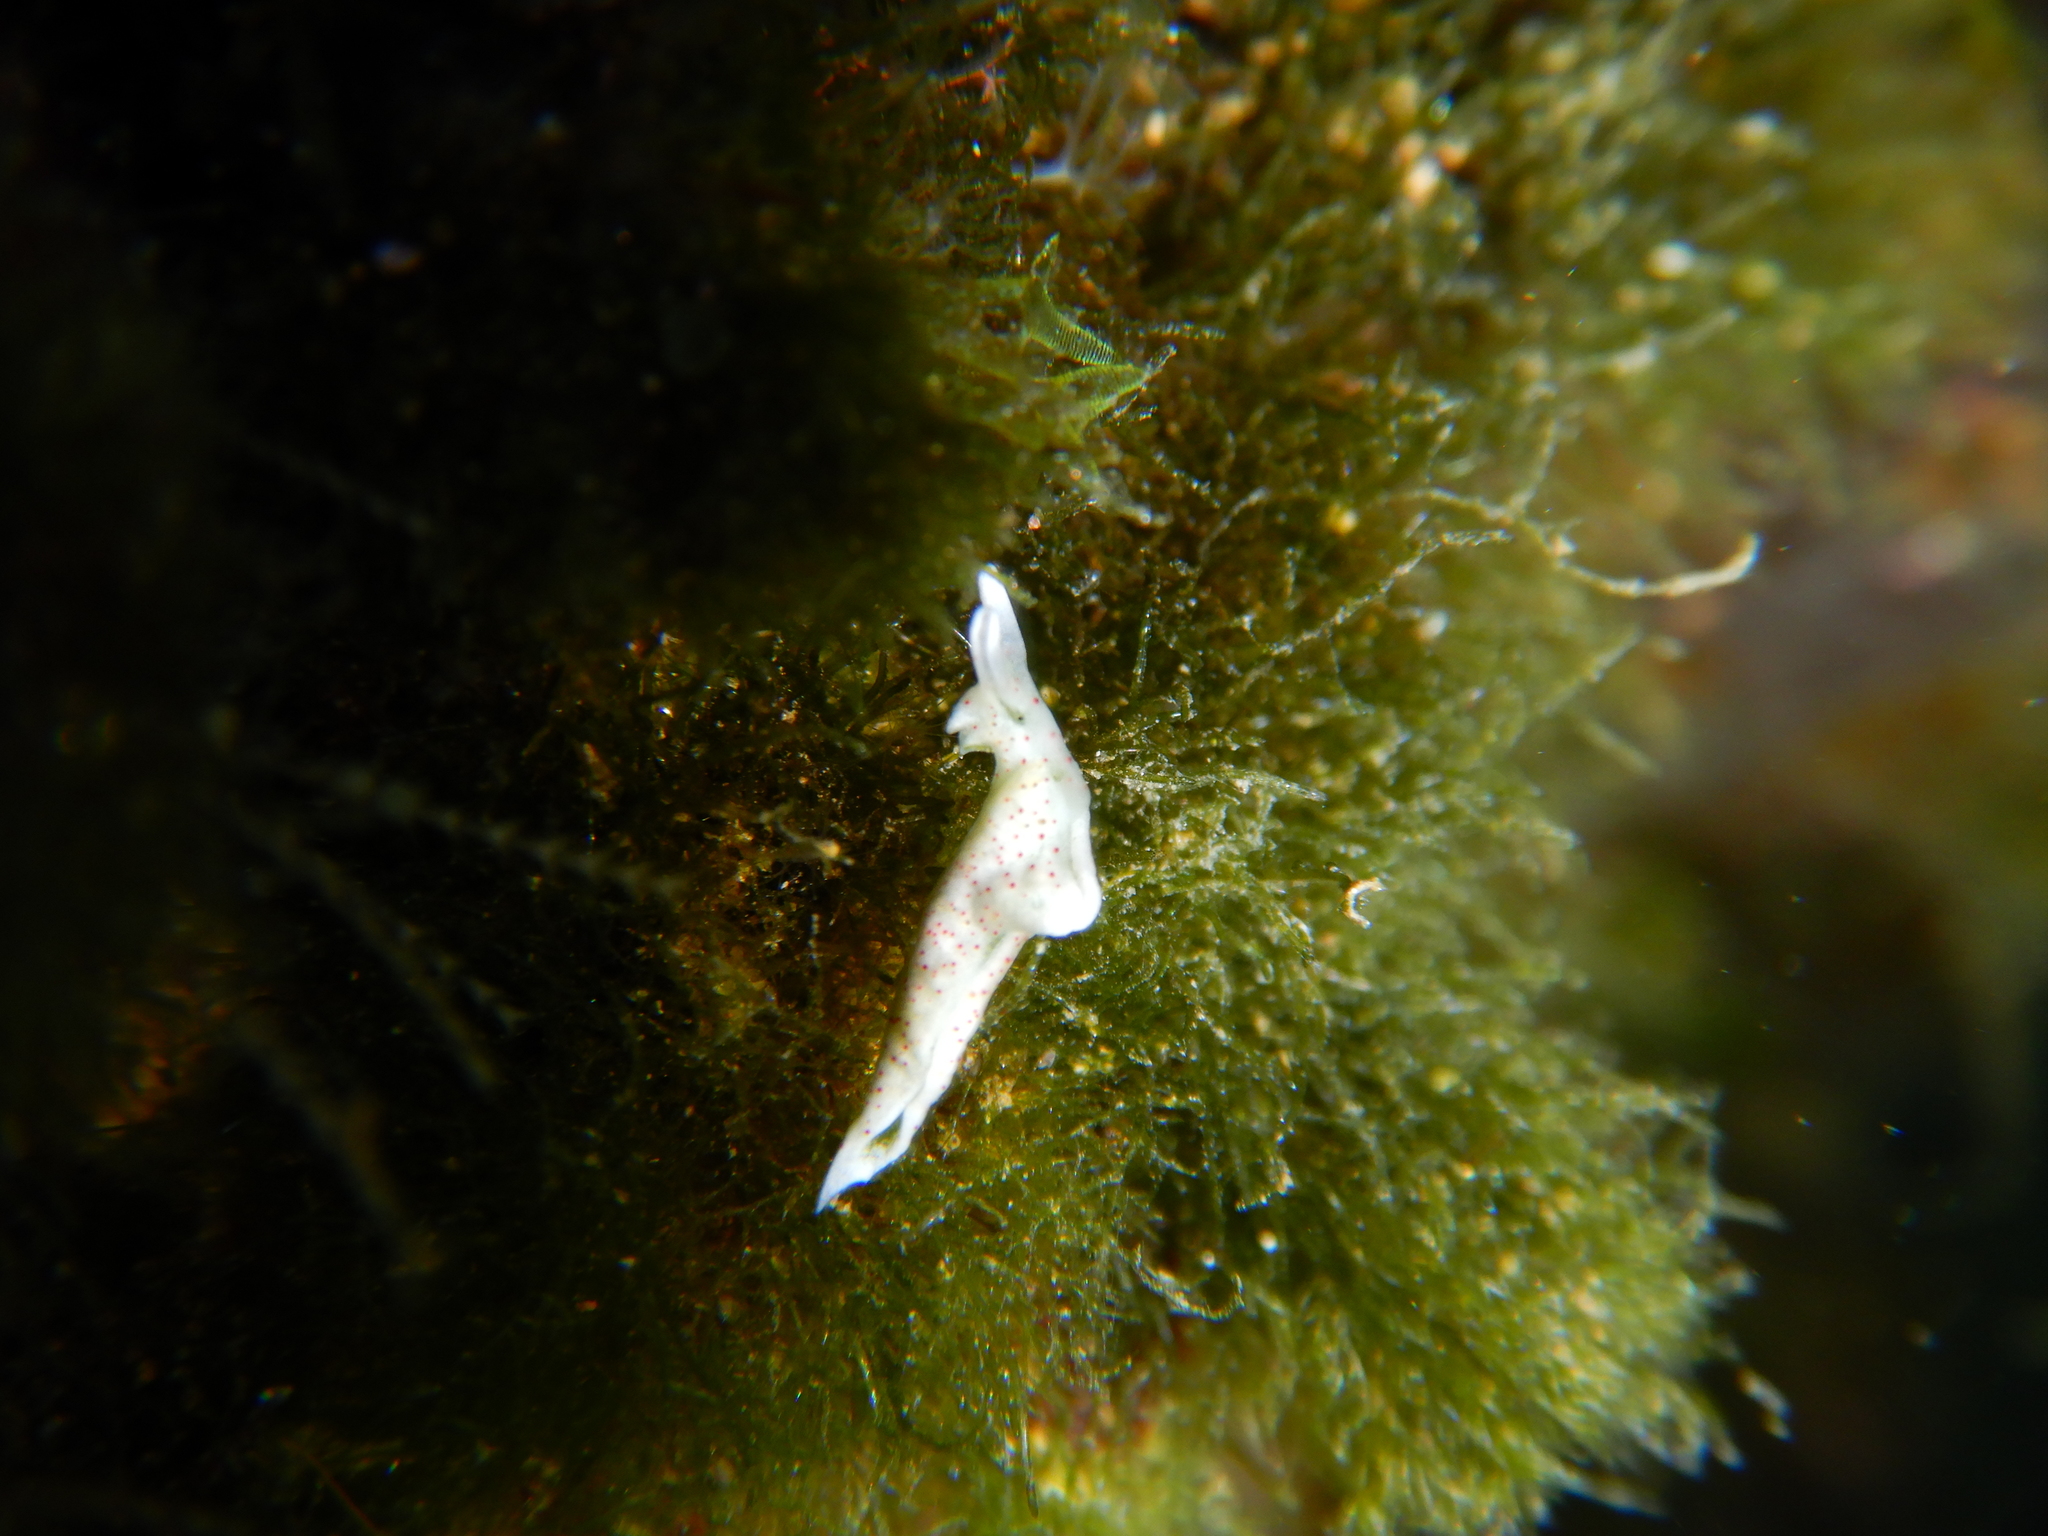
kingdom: Animalia
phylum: Mollusca
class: Gastropoda
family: Plakobranchidae
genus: Elysia
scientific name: Elysia timida
